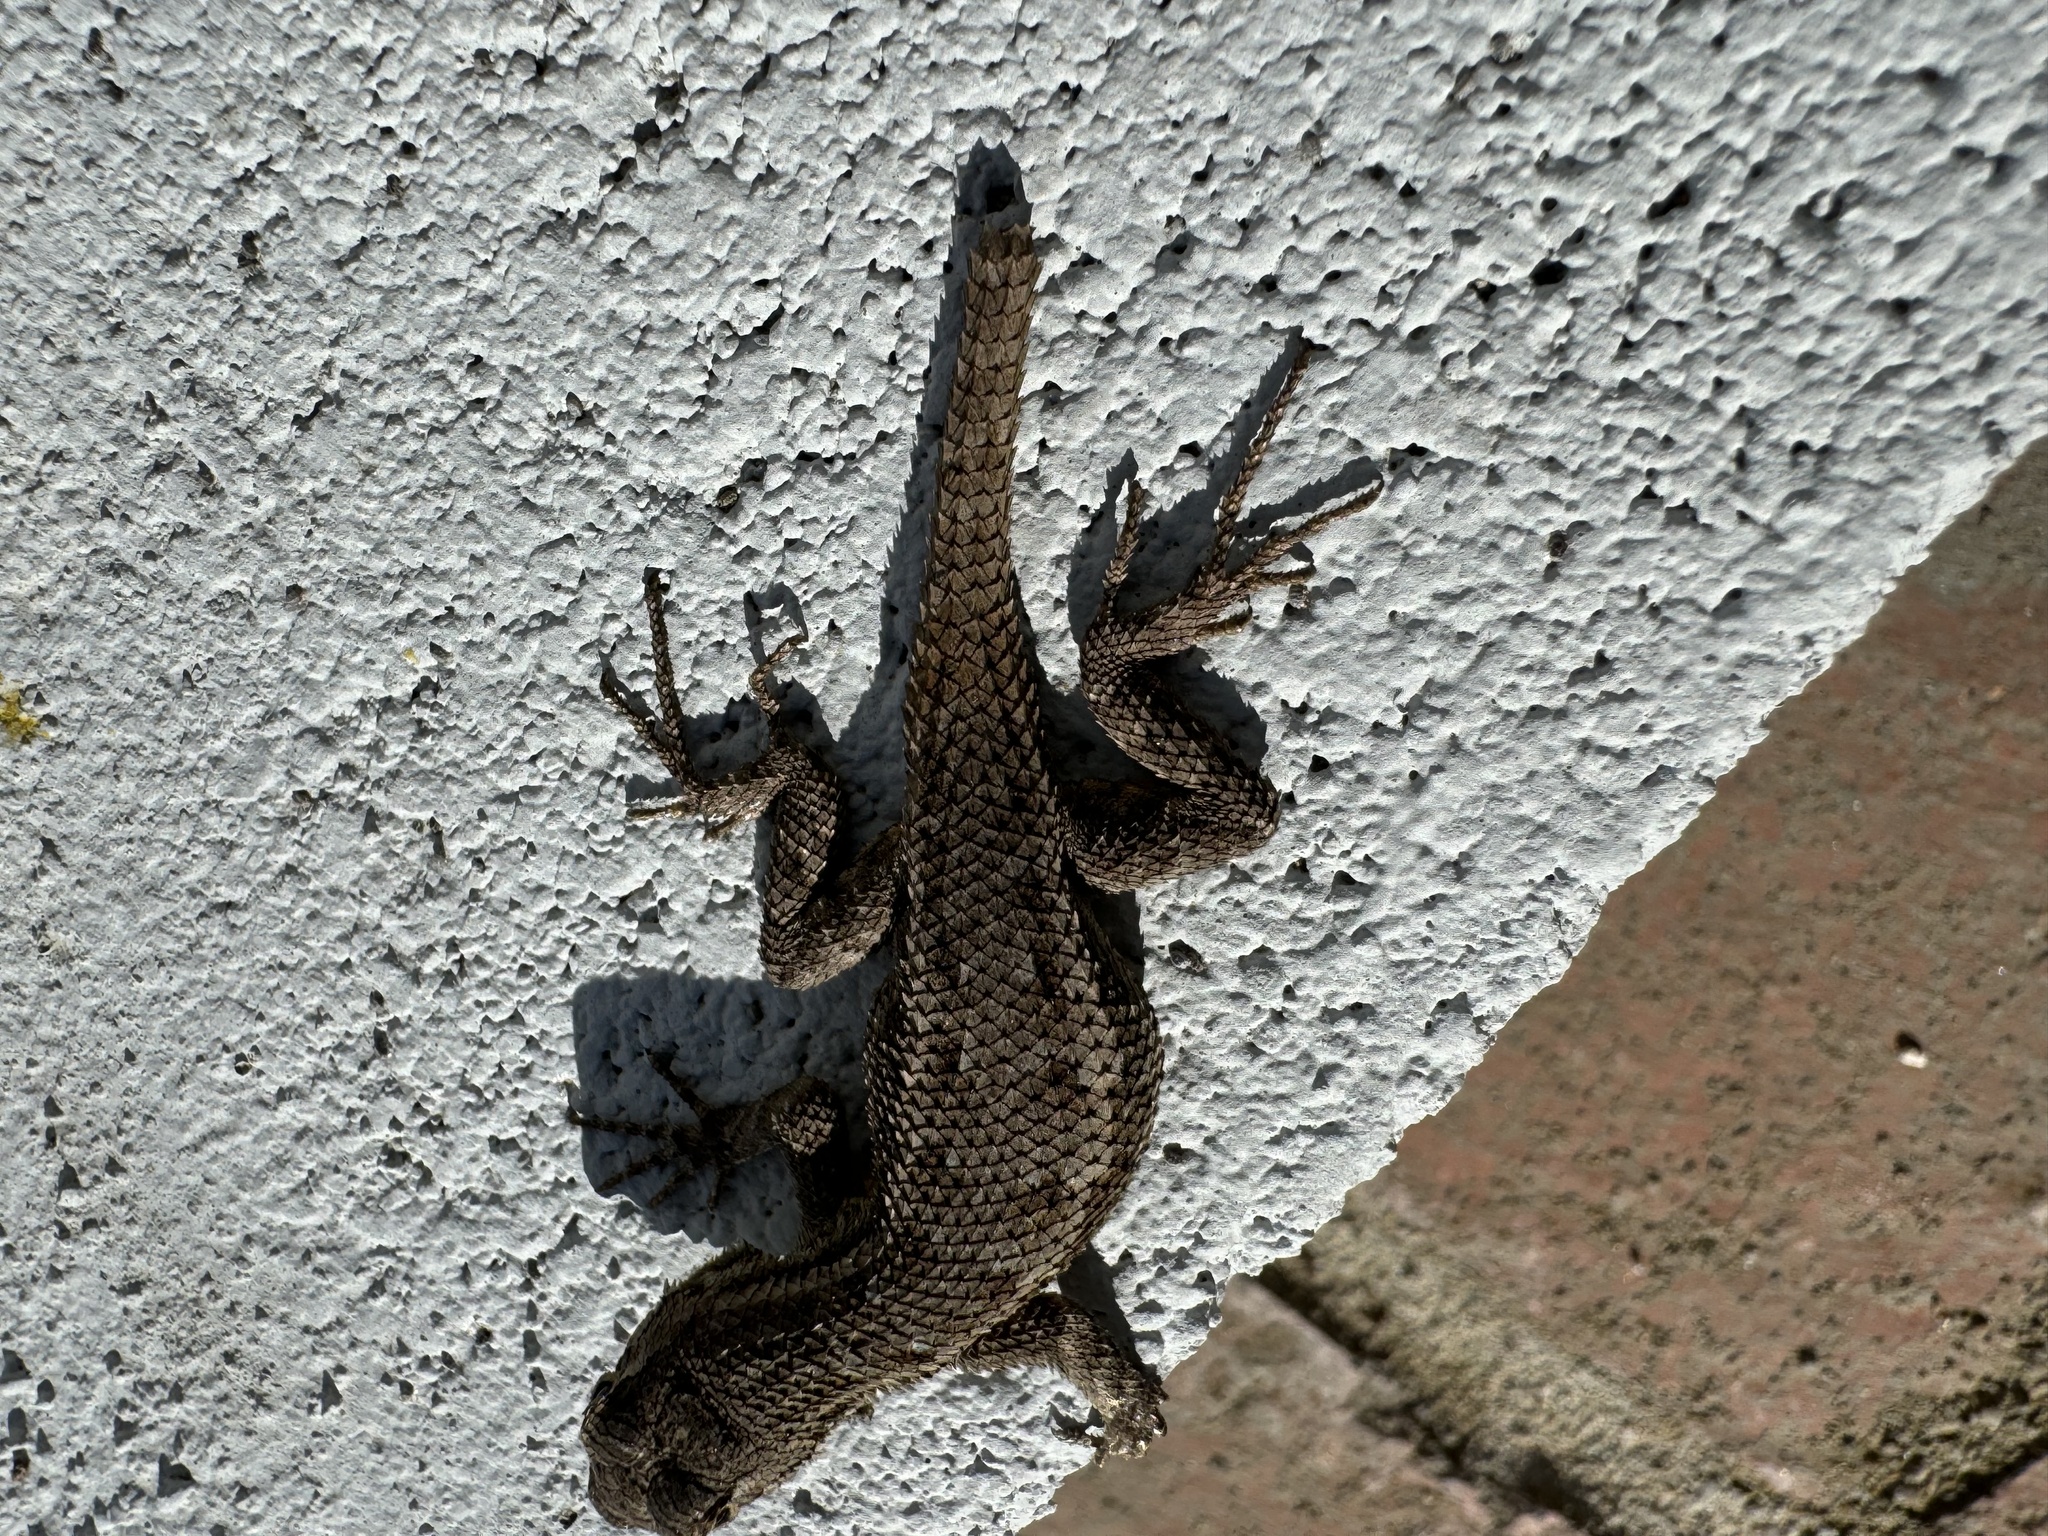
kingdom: Animalia
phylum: Chordata
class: Squamata
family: Phrynosomatidae
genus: Sceloporus
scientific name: Sceloporus occidentalis
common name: Western fence lizard
